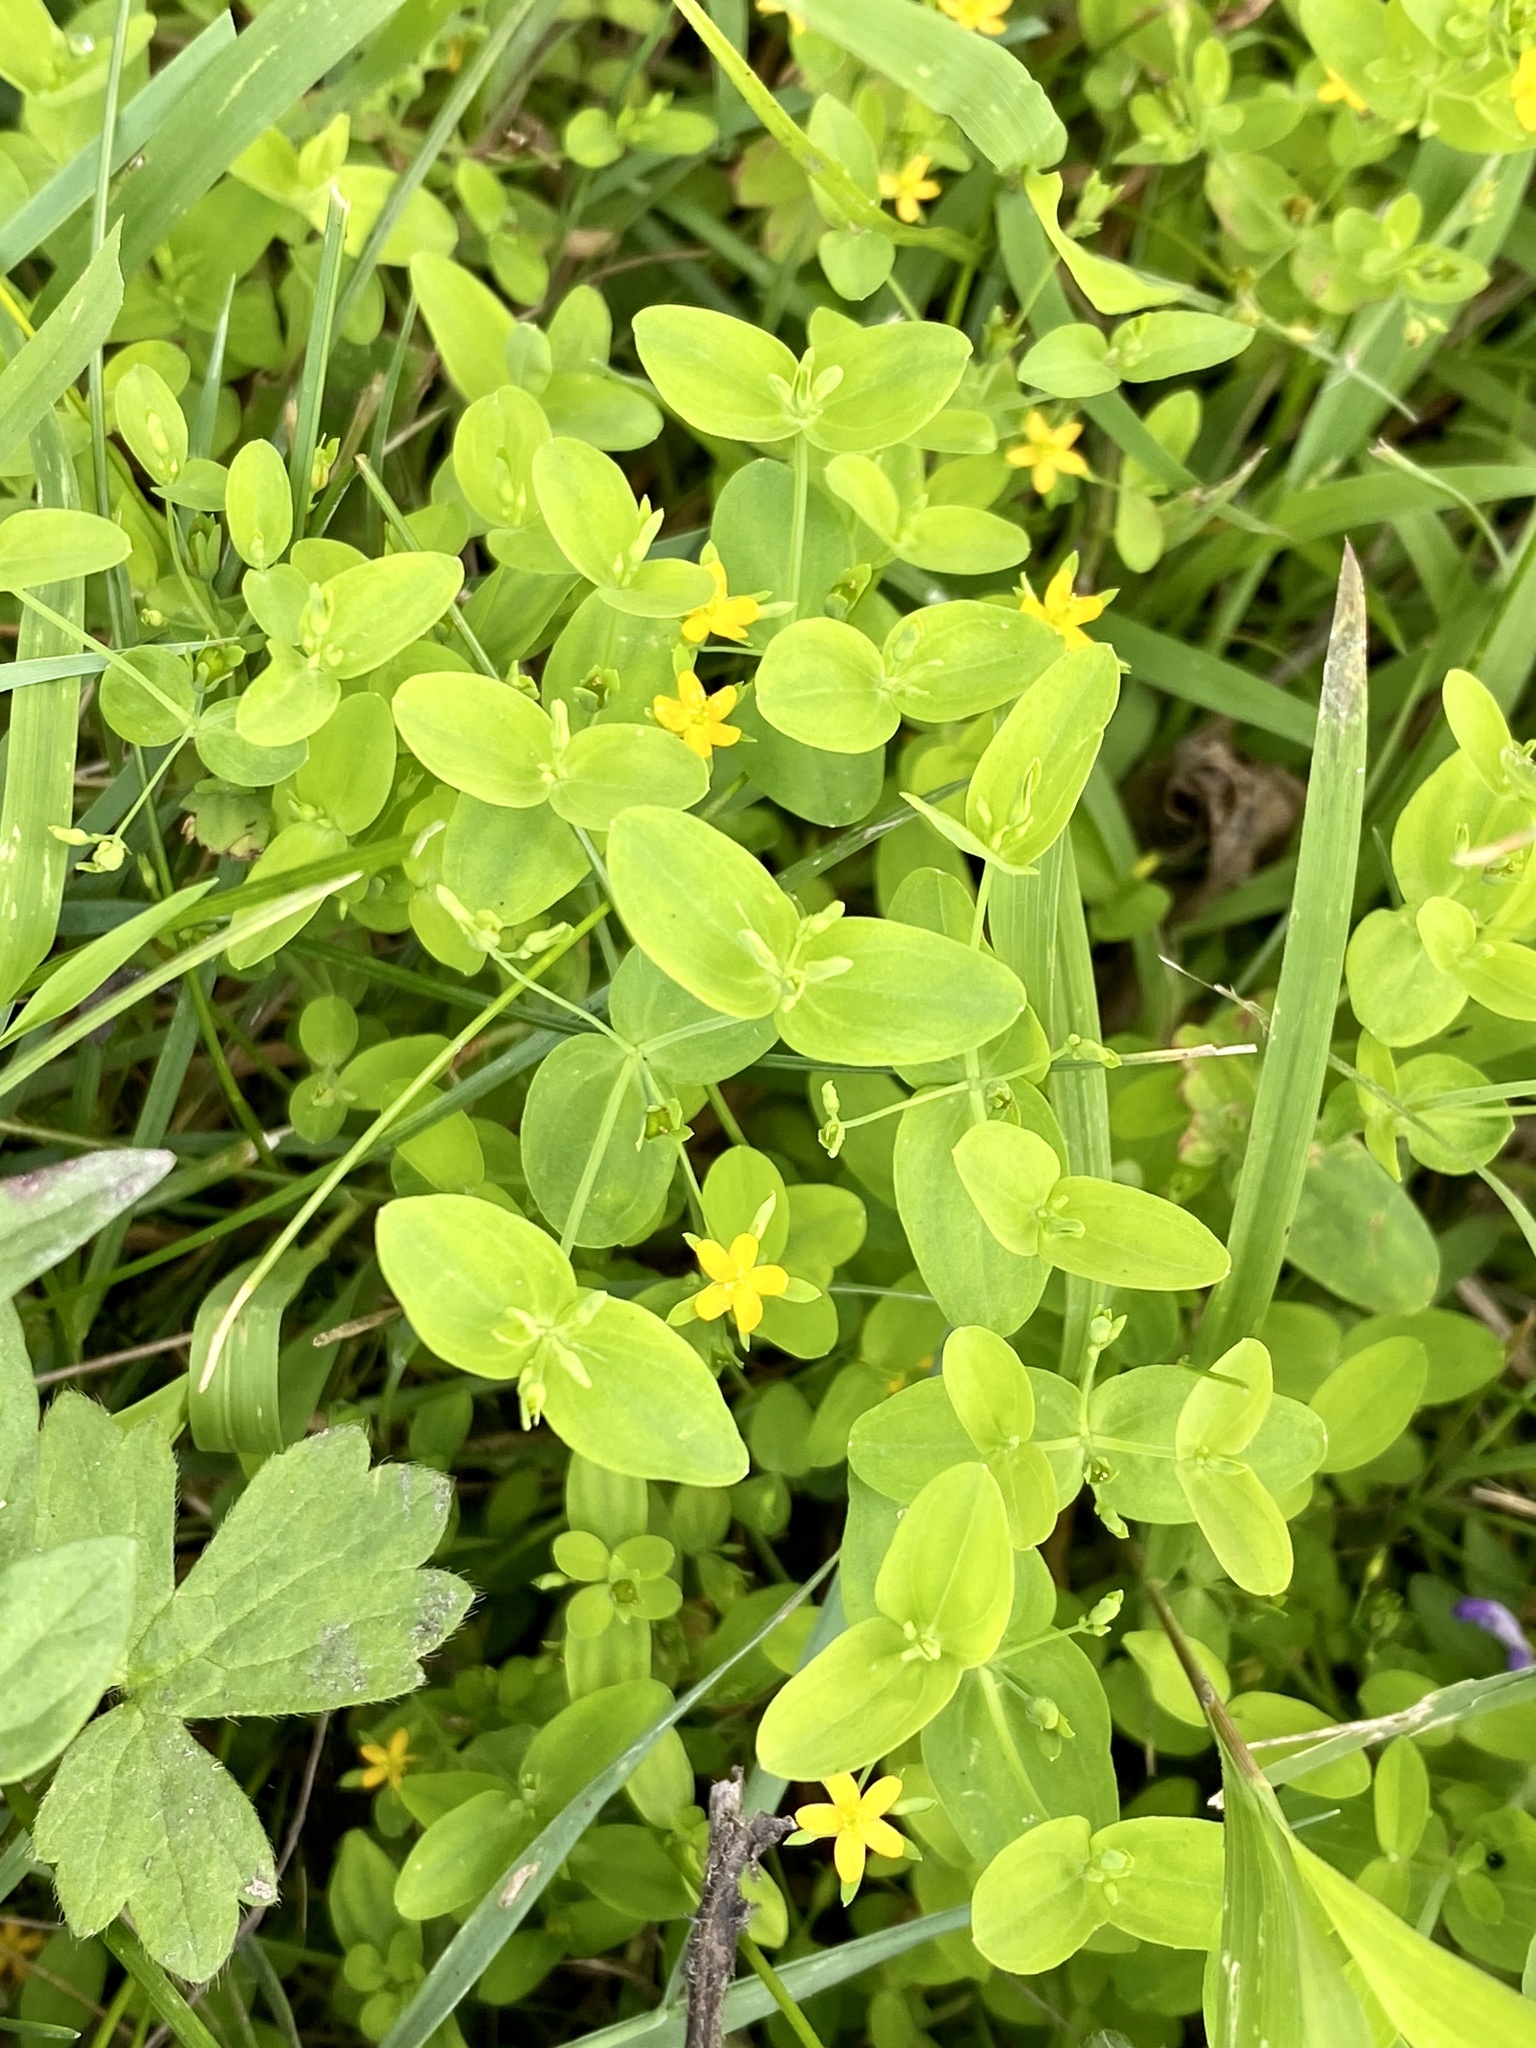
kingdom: Plantae
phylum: Tracheophyta
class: Magnoliopsida
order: Malpighiales
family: Hypericaceae
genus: Hypericum
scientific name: Hypericum mutilum
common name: Dwarf st. john's-wort
